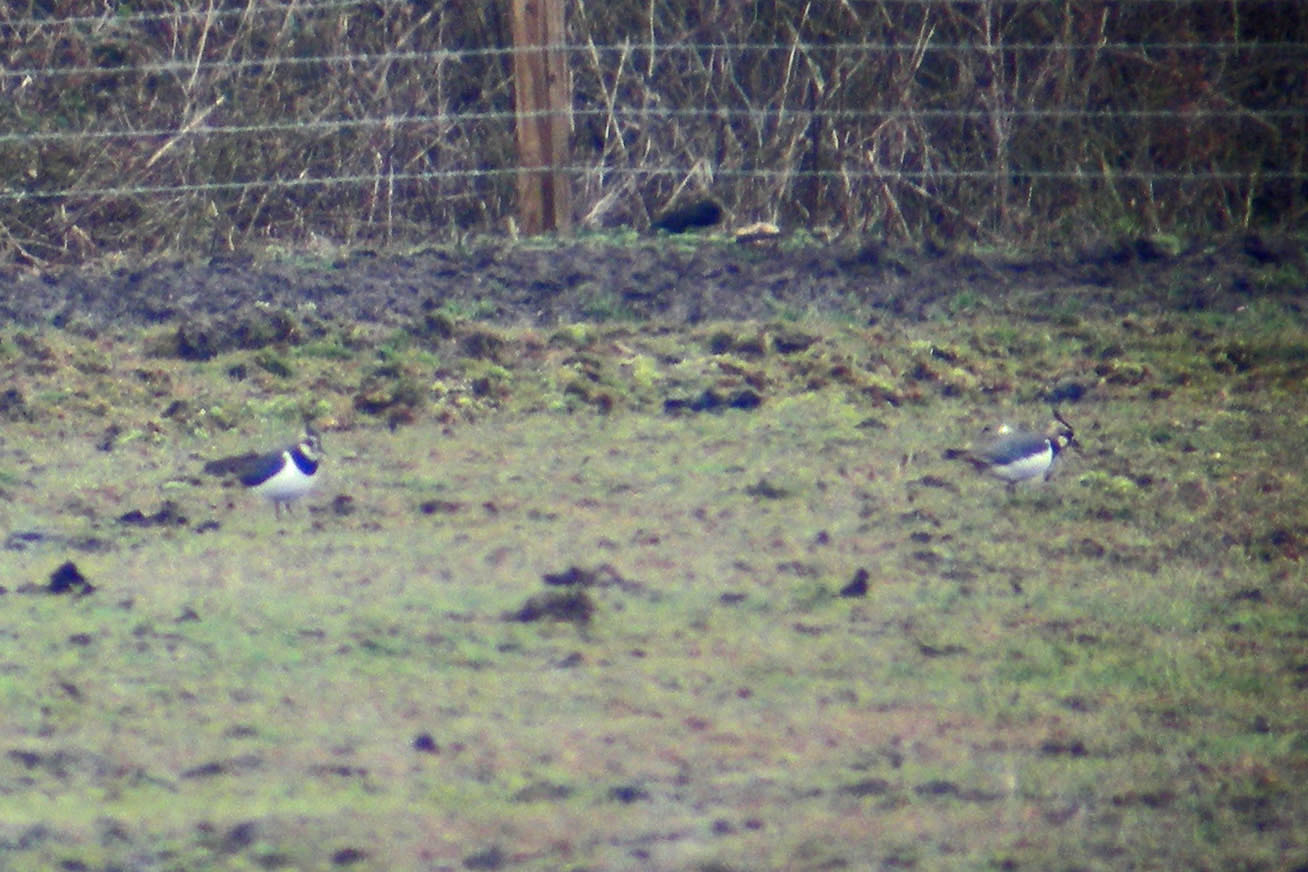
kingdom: Animalia
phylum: Chordata
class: Aves
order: Charadriiformes
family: Charadriidae
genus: Vanellus
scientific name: Vanellus vanellus
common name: Northern lapwing
